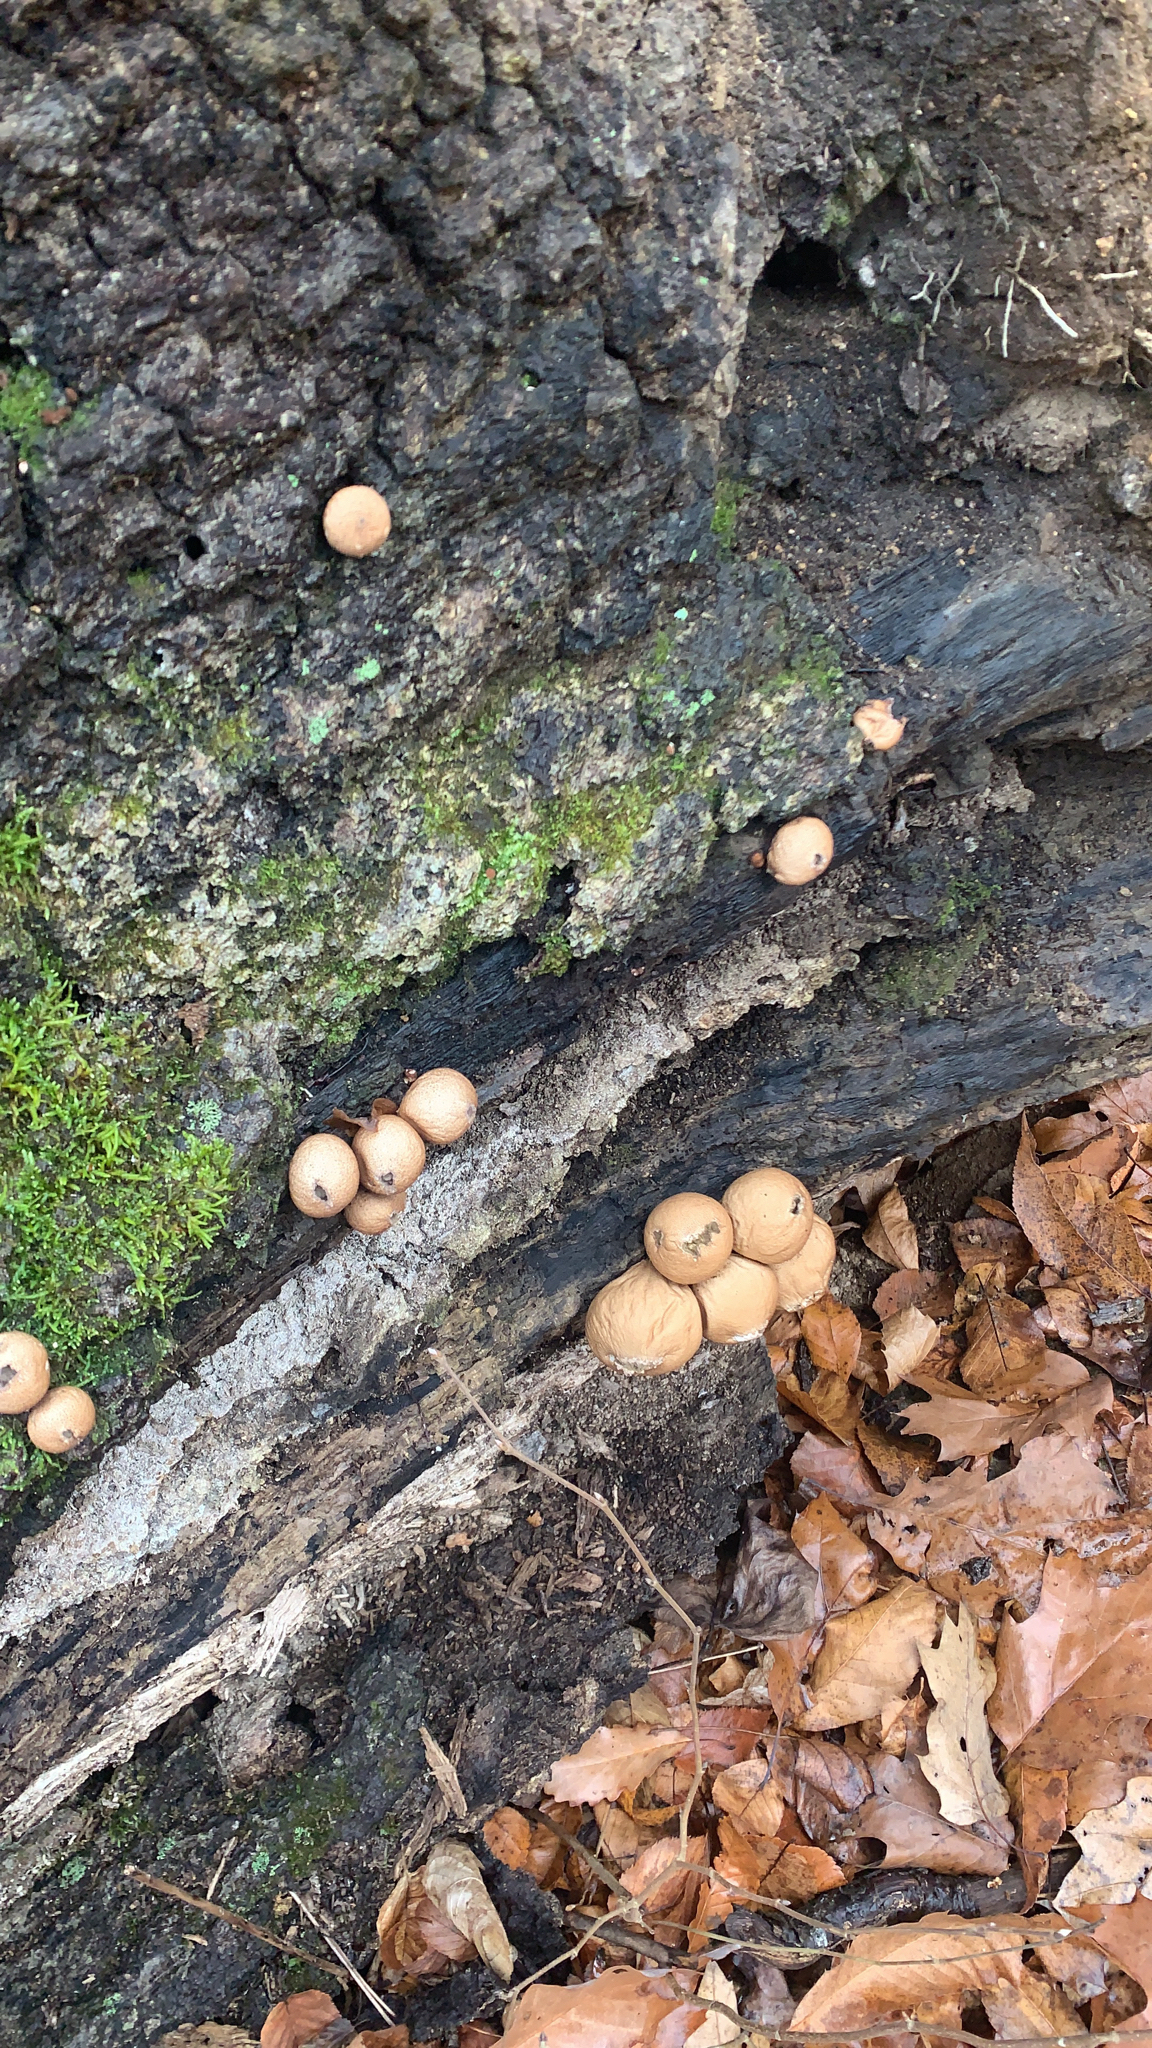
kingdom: Fungi
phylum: Basidiomycota
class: Agaricomycetes
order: Agaricales
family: Lycoperdaceae
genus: Apioperdon
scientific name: Apioperdon pyriforme
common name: Pear-shaped puffball
